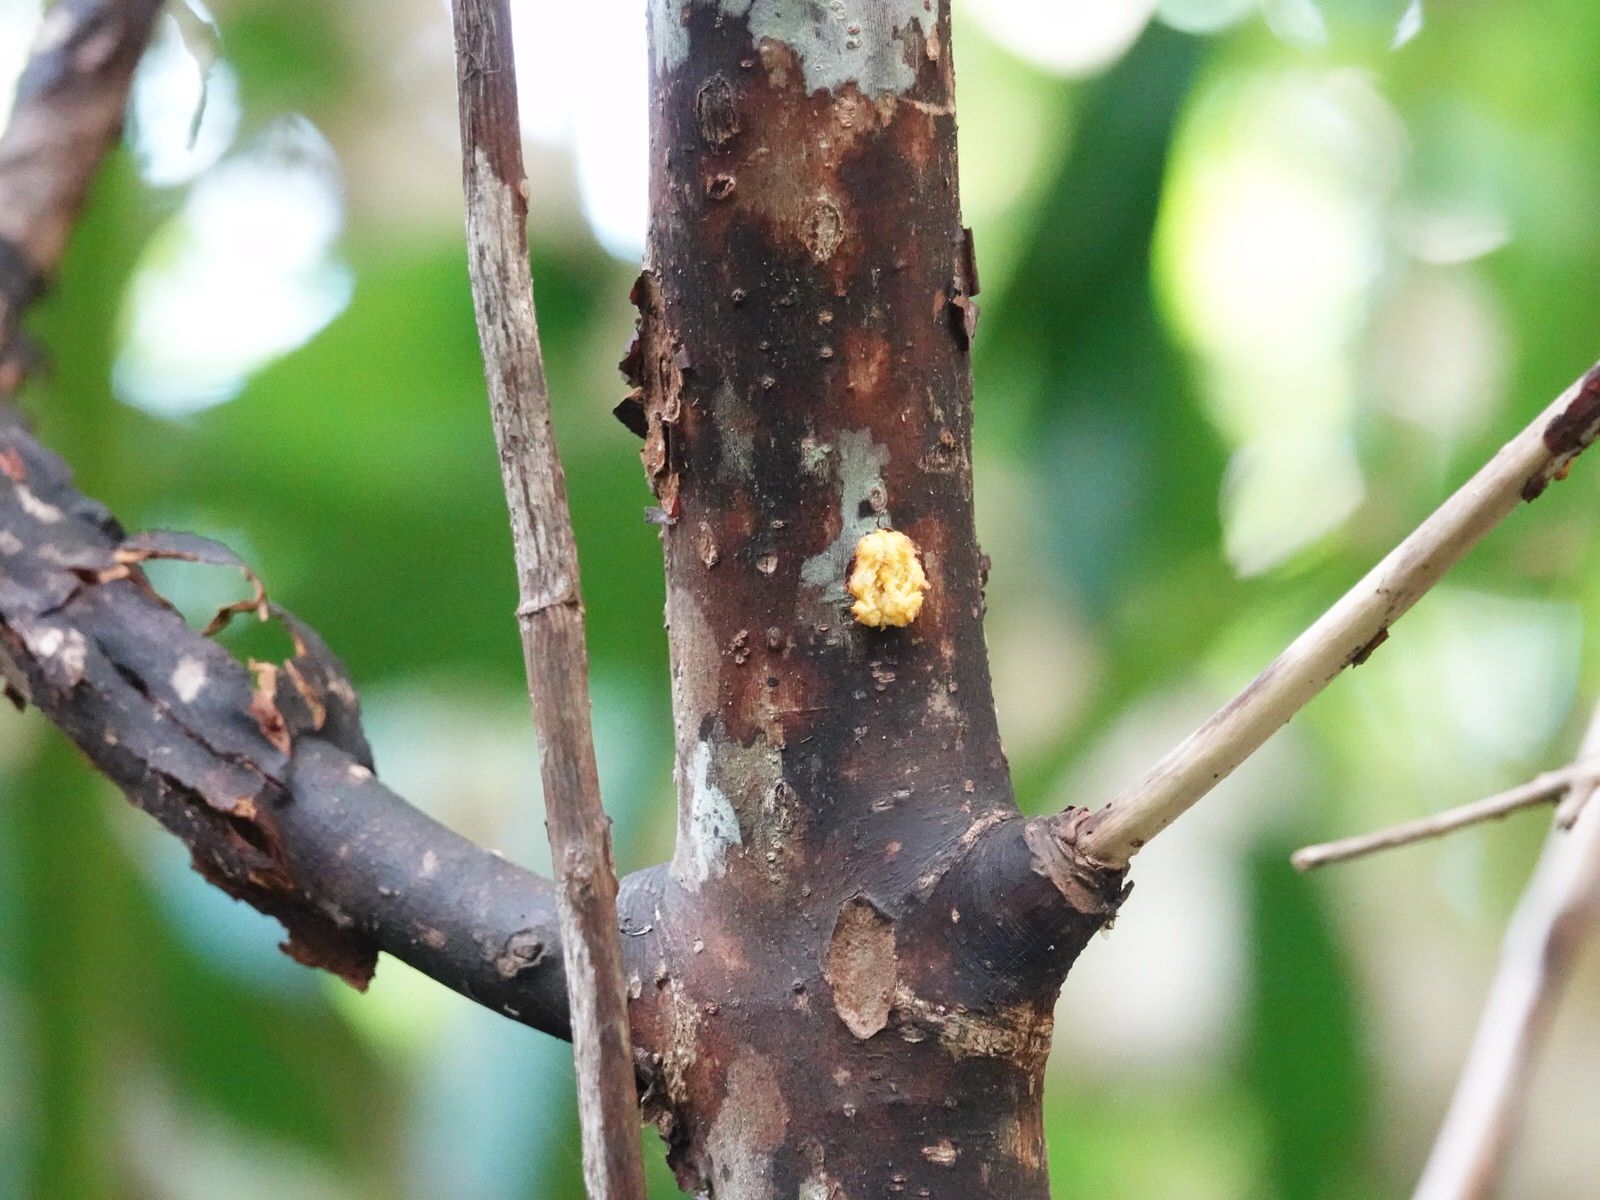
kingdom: Plantae
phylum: Tracheophyta
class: Magnoliopsida
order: Gentianales
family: Rubiaceae
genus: Coprosma
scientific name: Coprosma autumnalis
